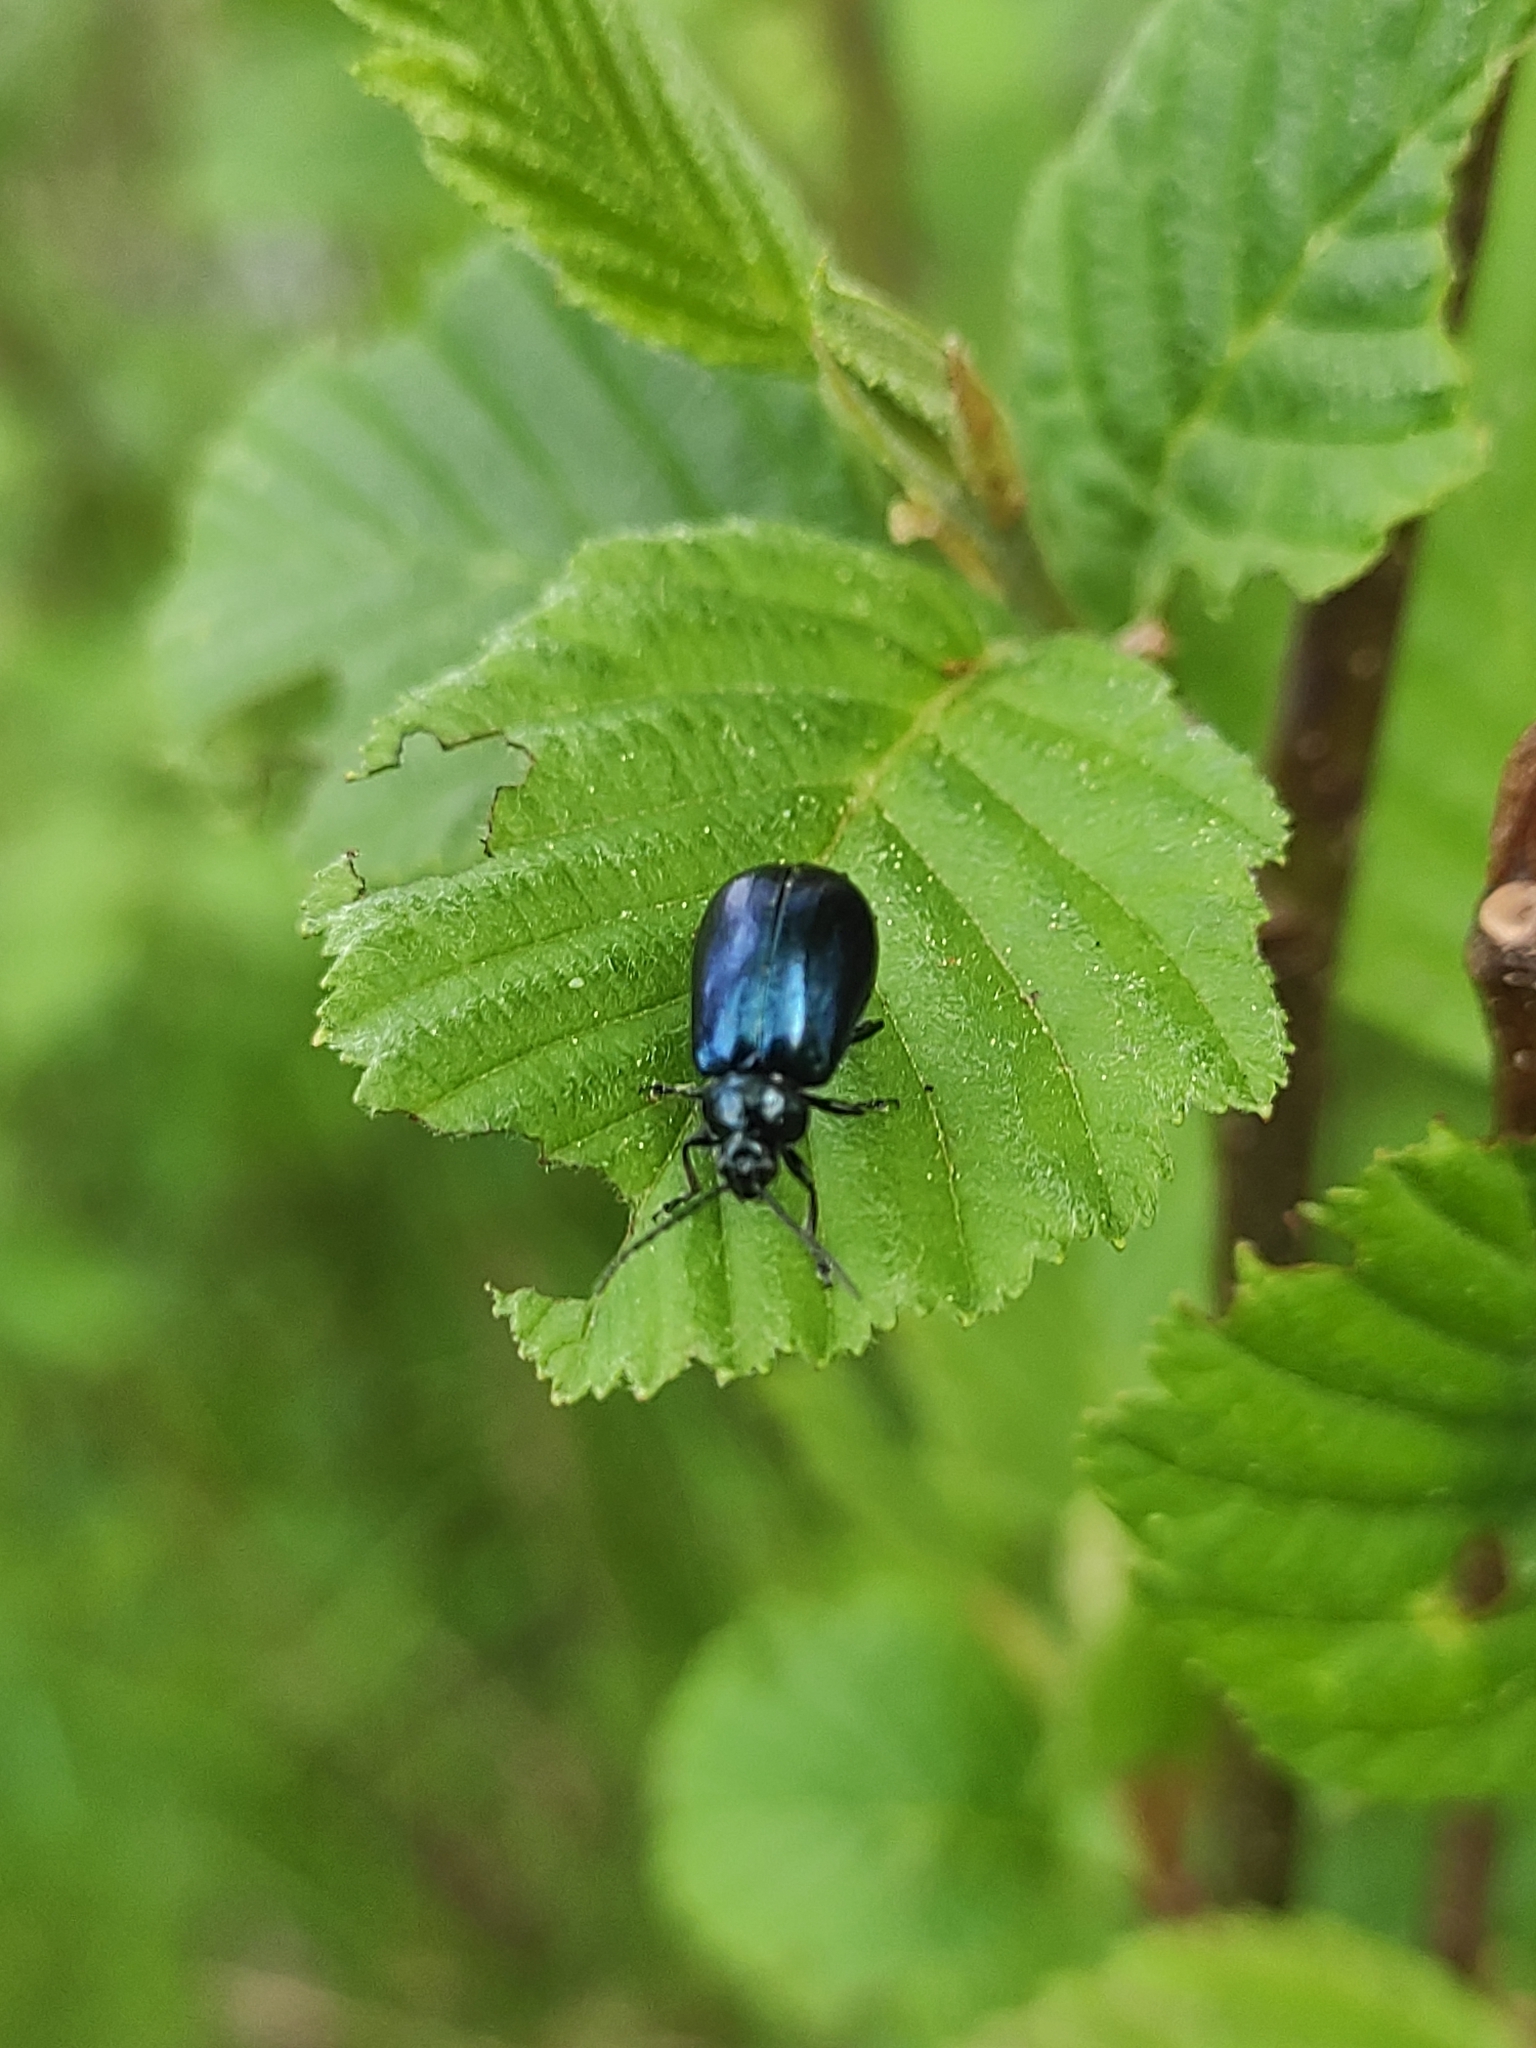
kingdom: Animalia
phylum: Arthropoda
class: Insecta
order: Coleoptera
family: Chrysomelidae
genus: Agelastica
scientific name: Agelastica alni
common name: Alder leaf beetle
